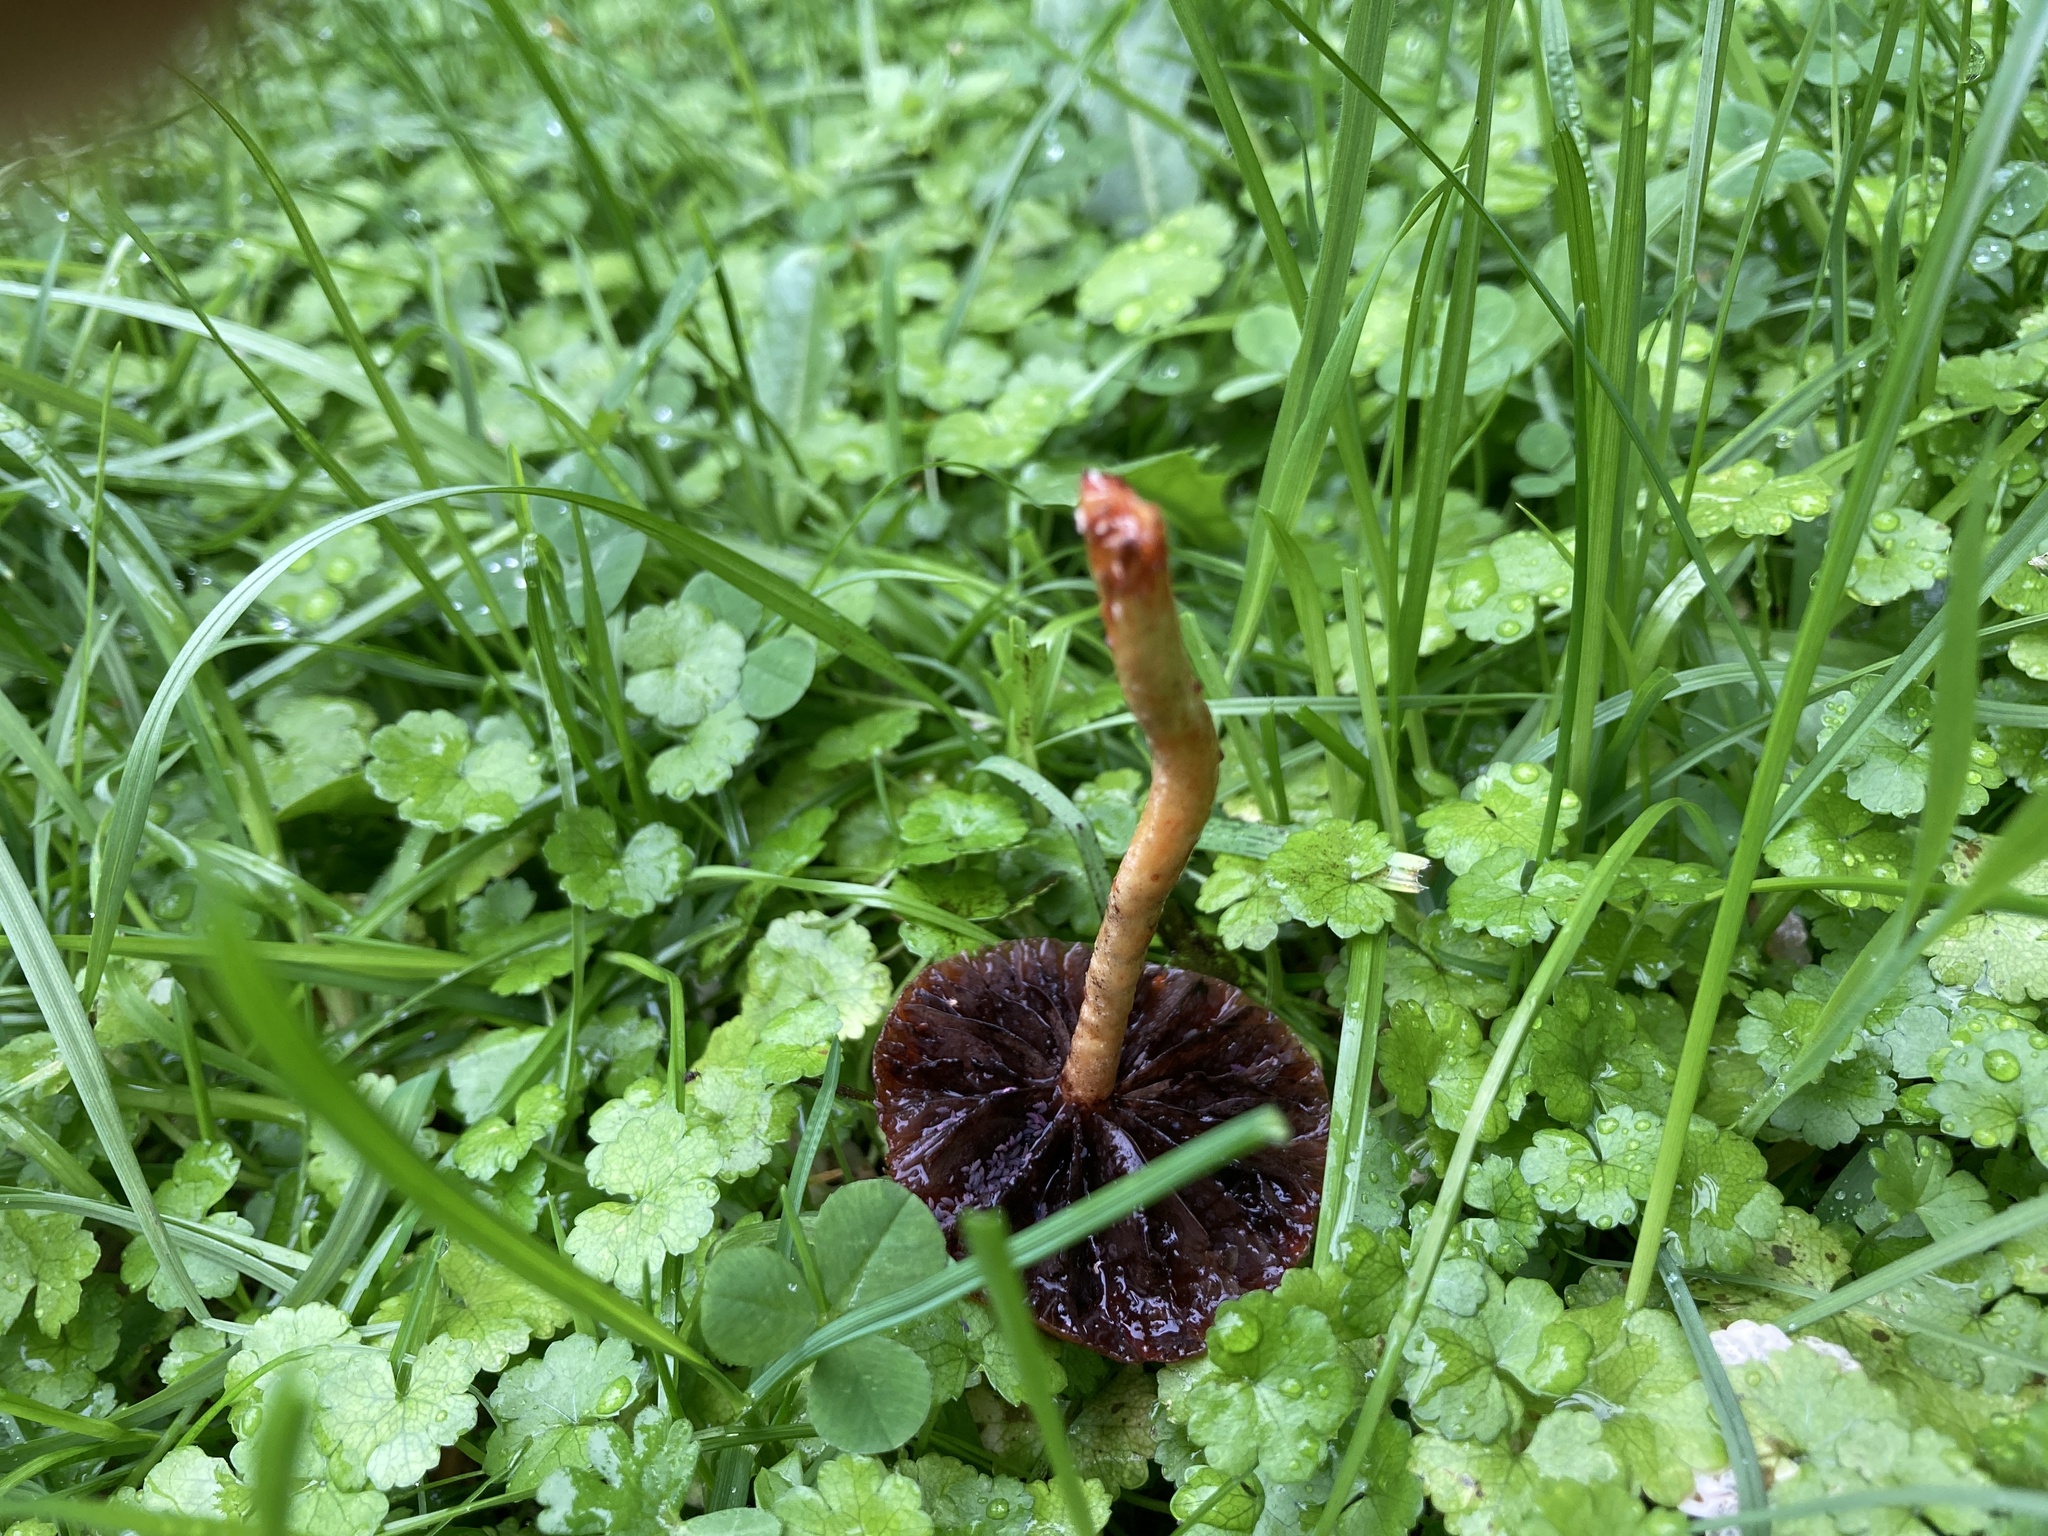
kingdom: Fungi
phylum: Basidiomycota
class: Agaricomycetes
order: Agaricales
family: Strophariaceae
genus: Leratiomyces
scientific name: Leratiomyces ceres
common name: Redlead roundhead
